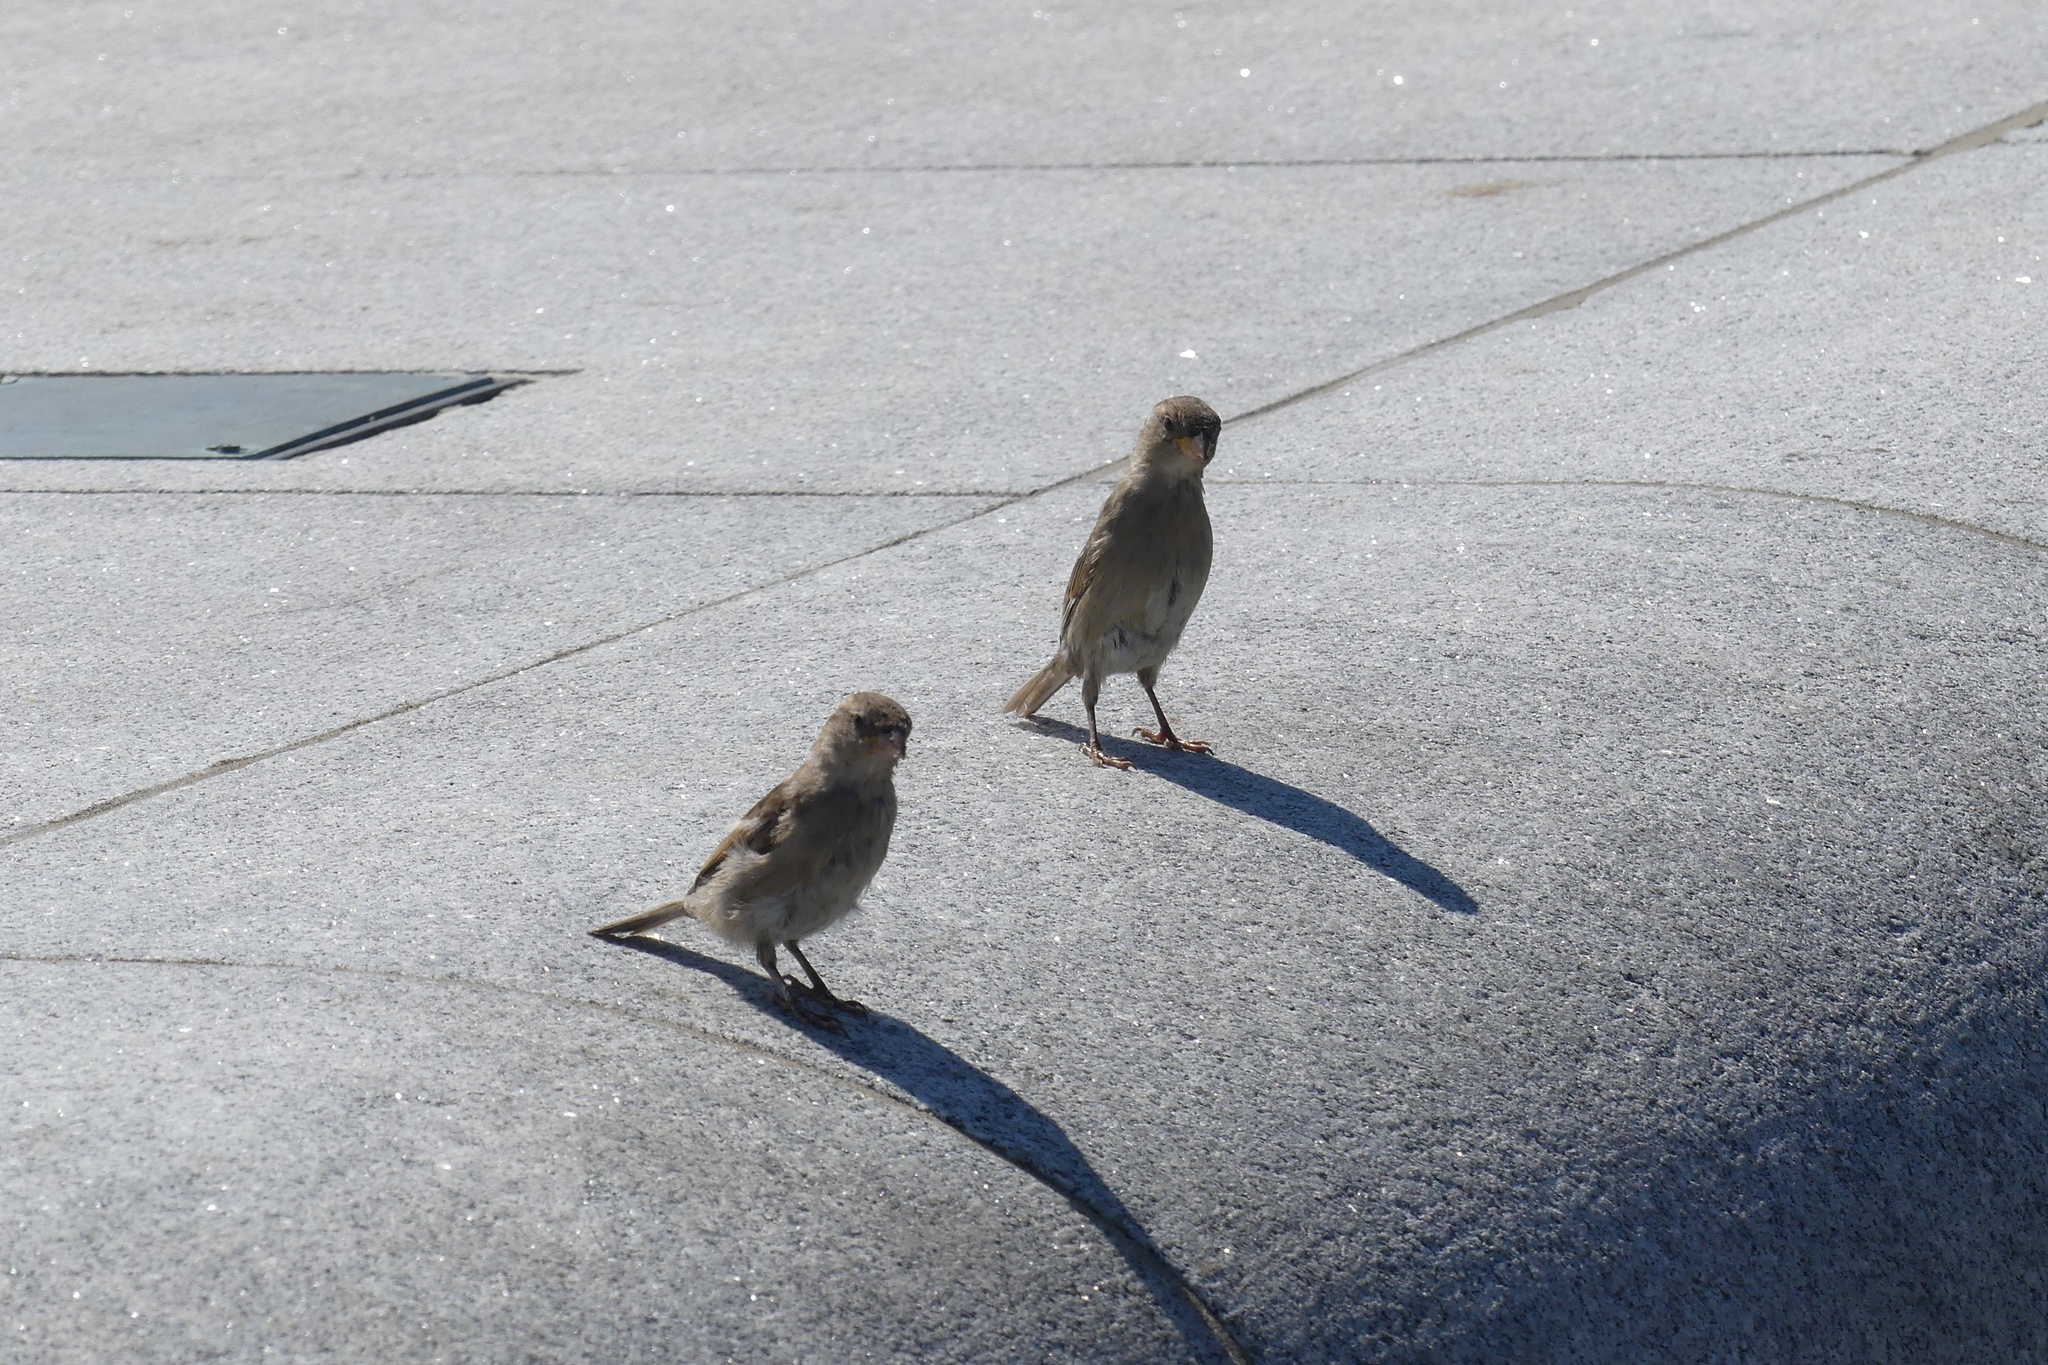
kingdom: Animalia
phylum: Chordata
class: Aves
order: Passeriformes
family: Passeridae
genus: Passer
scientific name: Passer domesticus
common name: House sparrow
